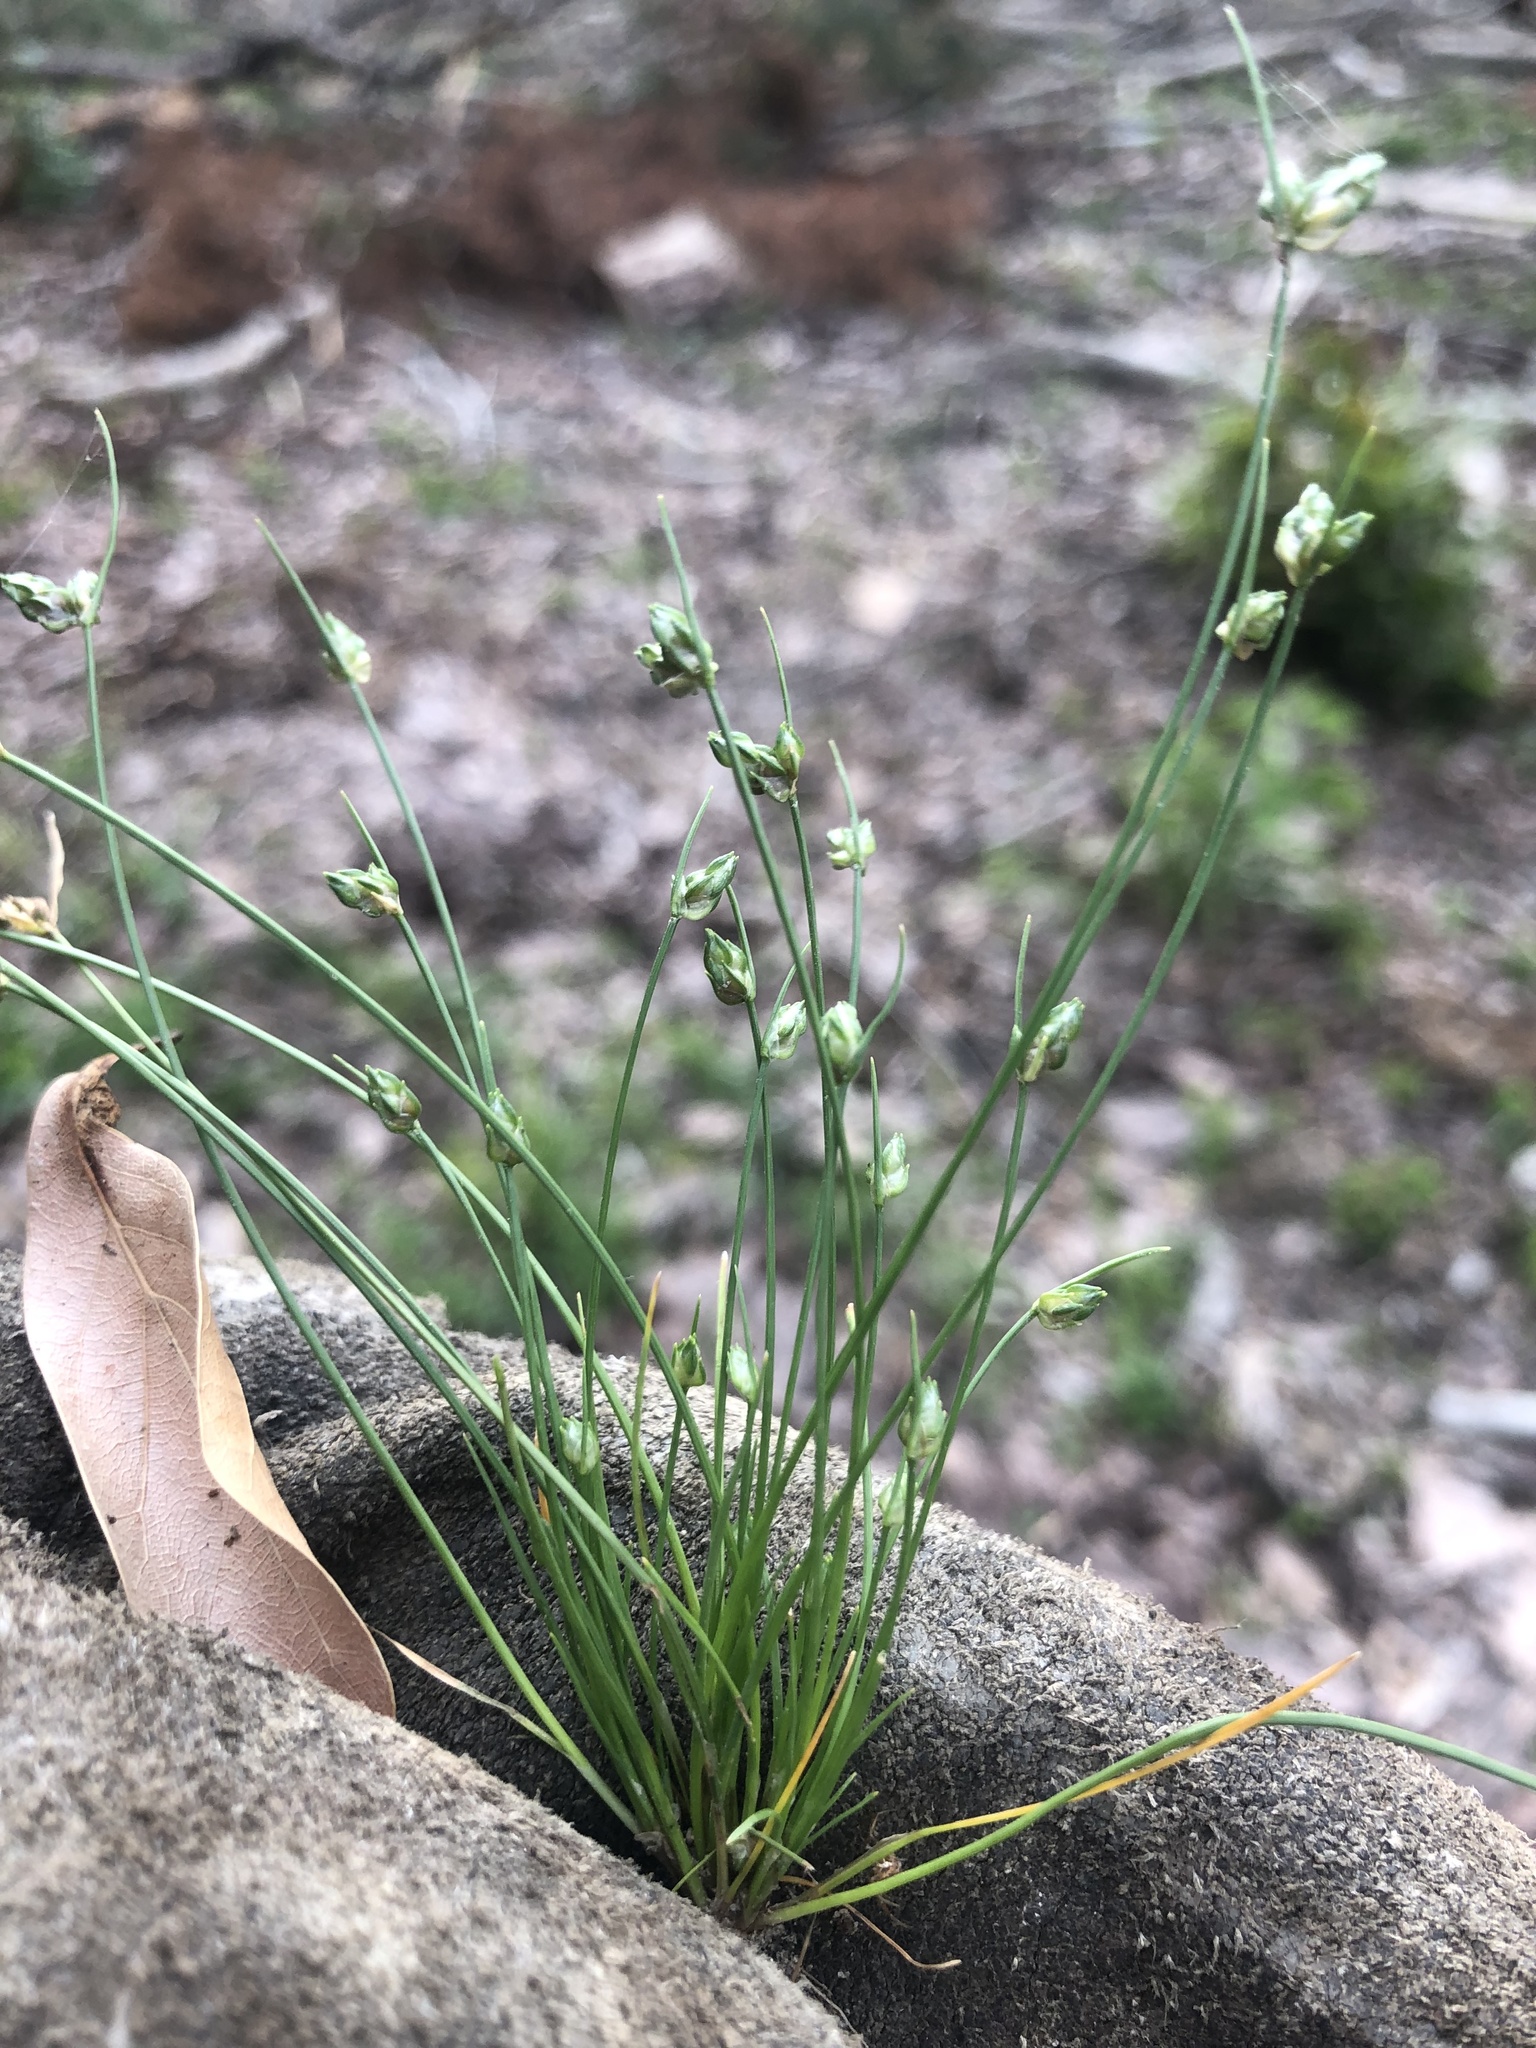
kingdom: Plantae
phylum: Tracheophyta
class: Liliopsida
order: Poales
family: Cyperaceae
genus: Isolepis
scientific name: Isolepis carinata
